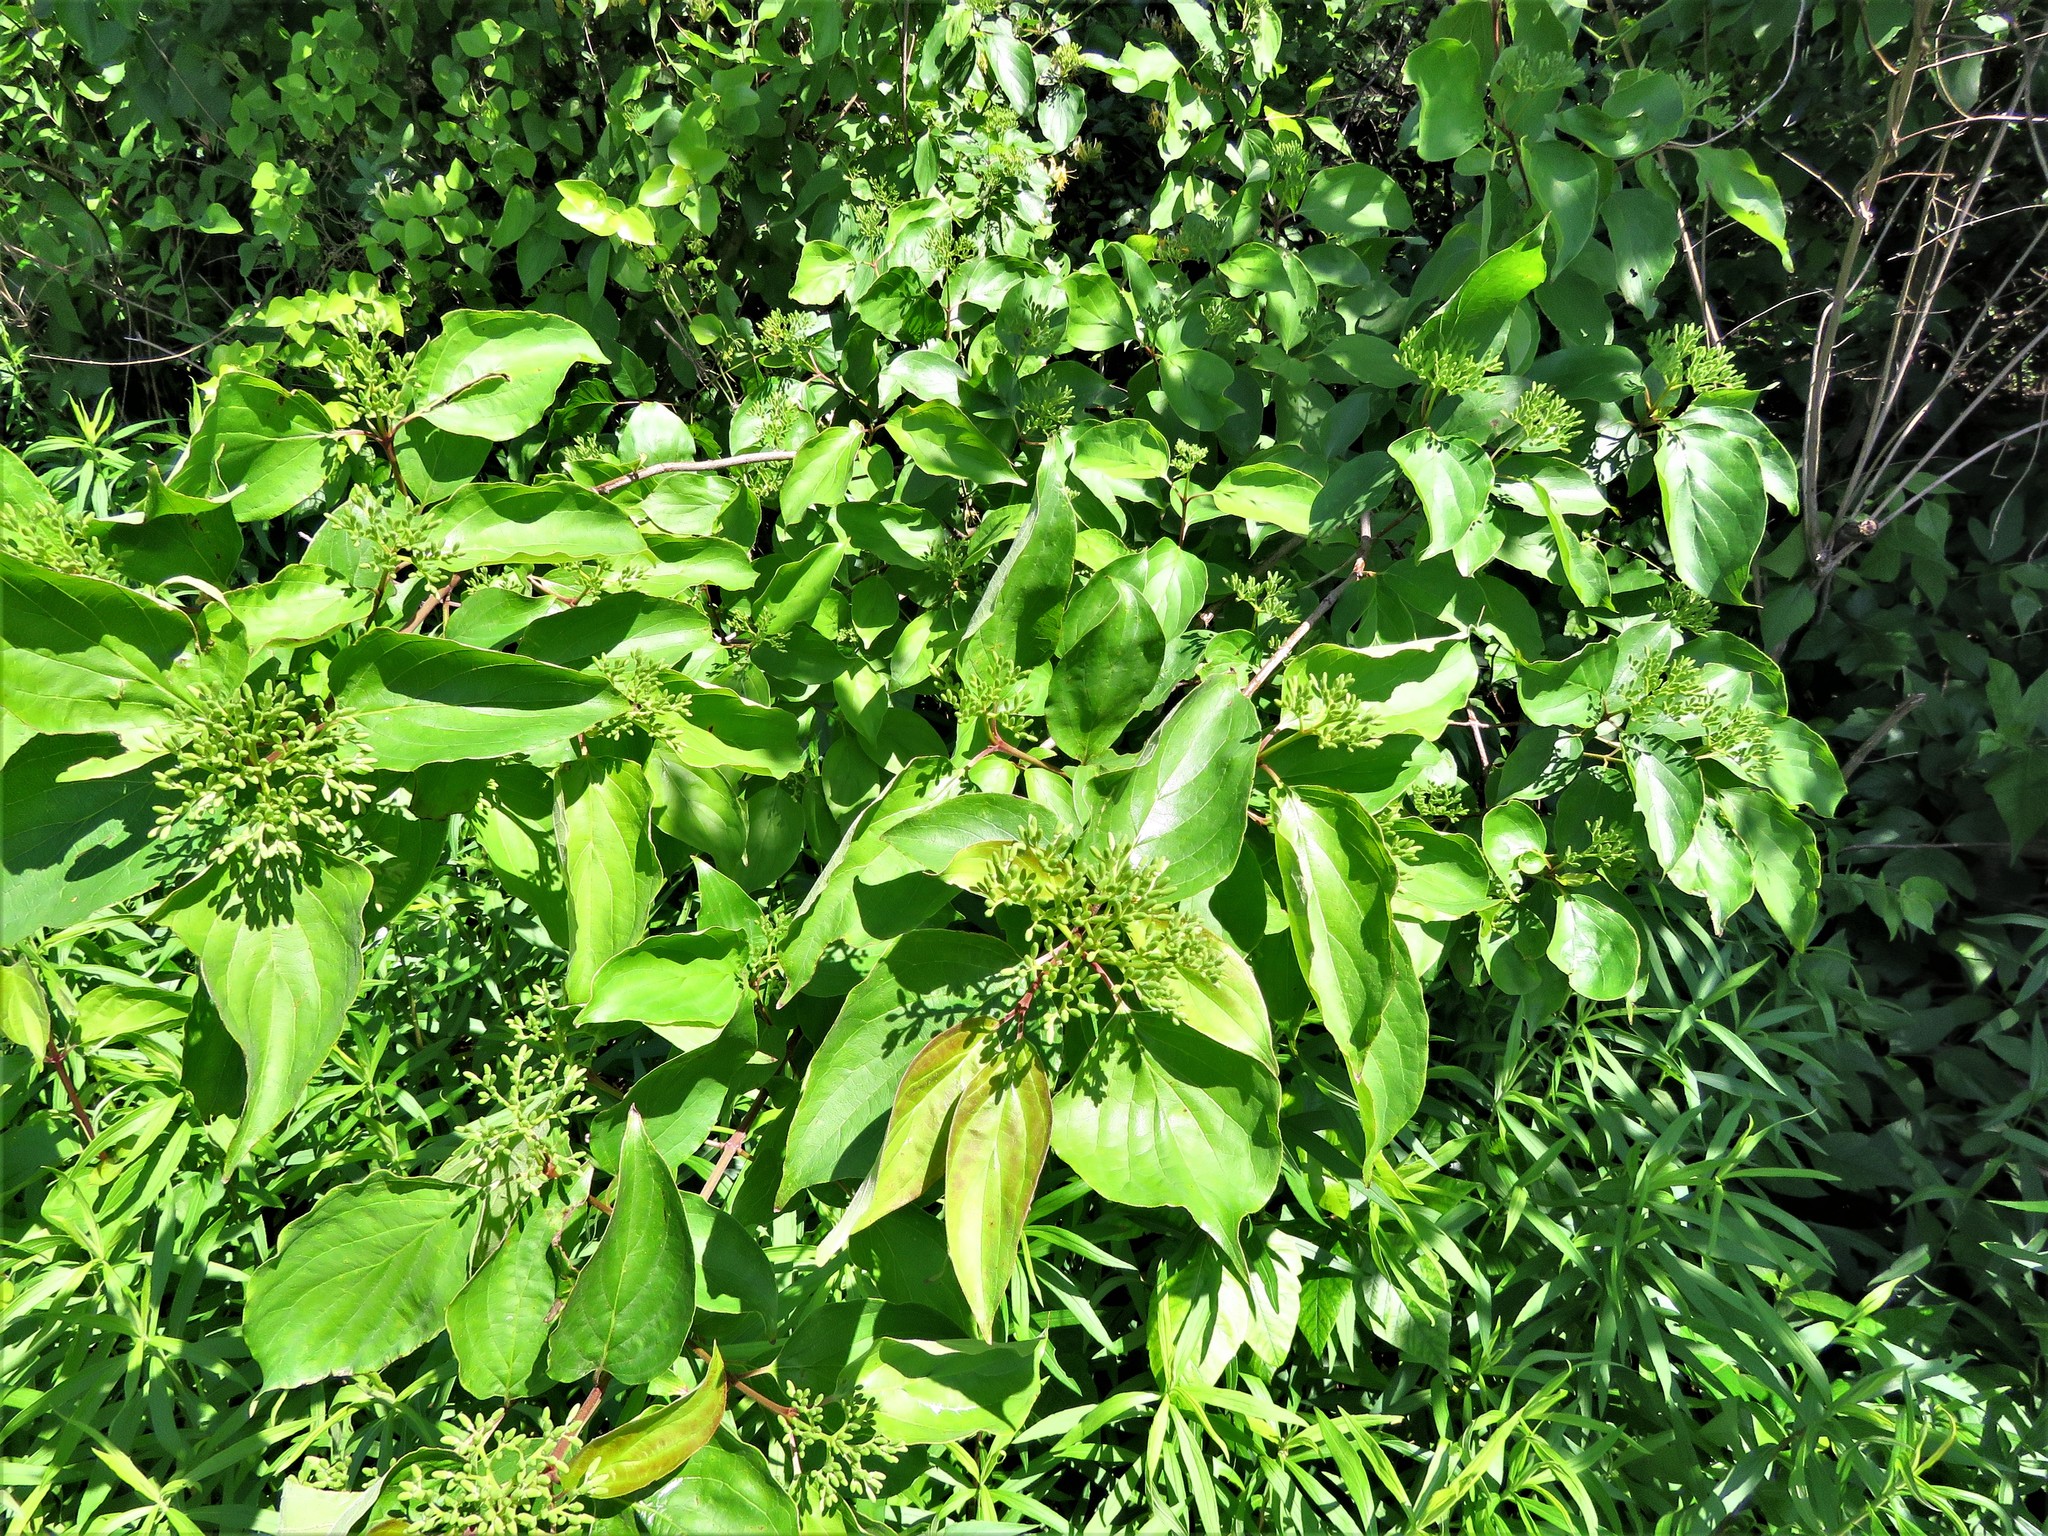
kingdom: Plantae
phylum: Tracheophyta
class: Magnoliopsida
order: Cornales
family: Cornaceae
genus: Cornus
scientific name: Cornus drummondii
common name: Rough-leaf dogwood
